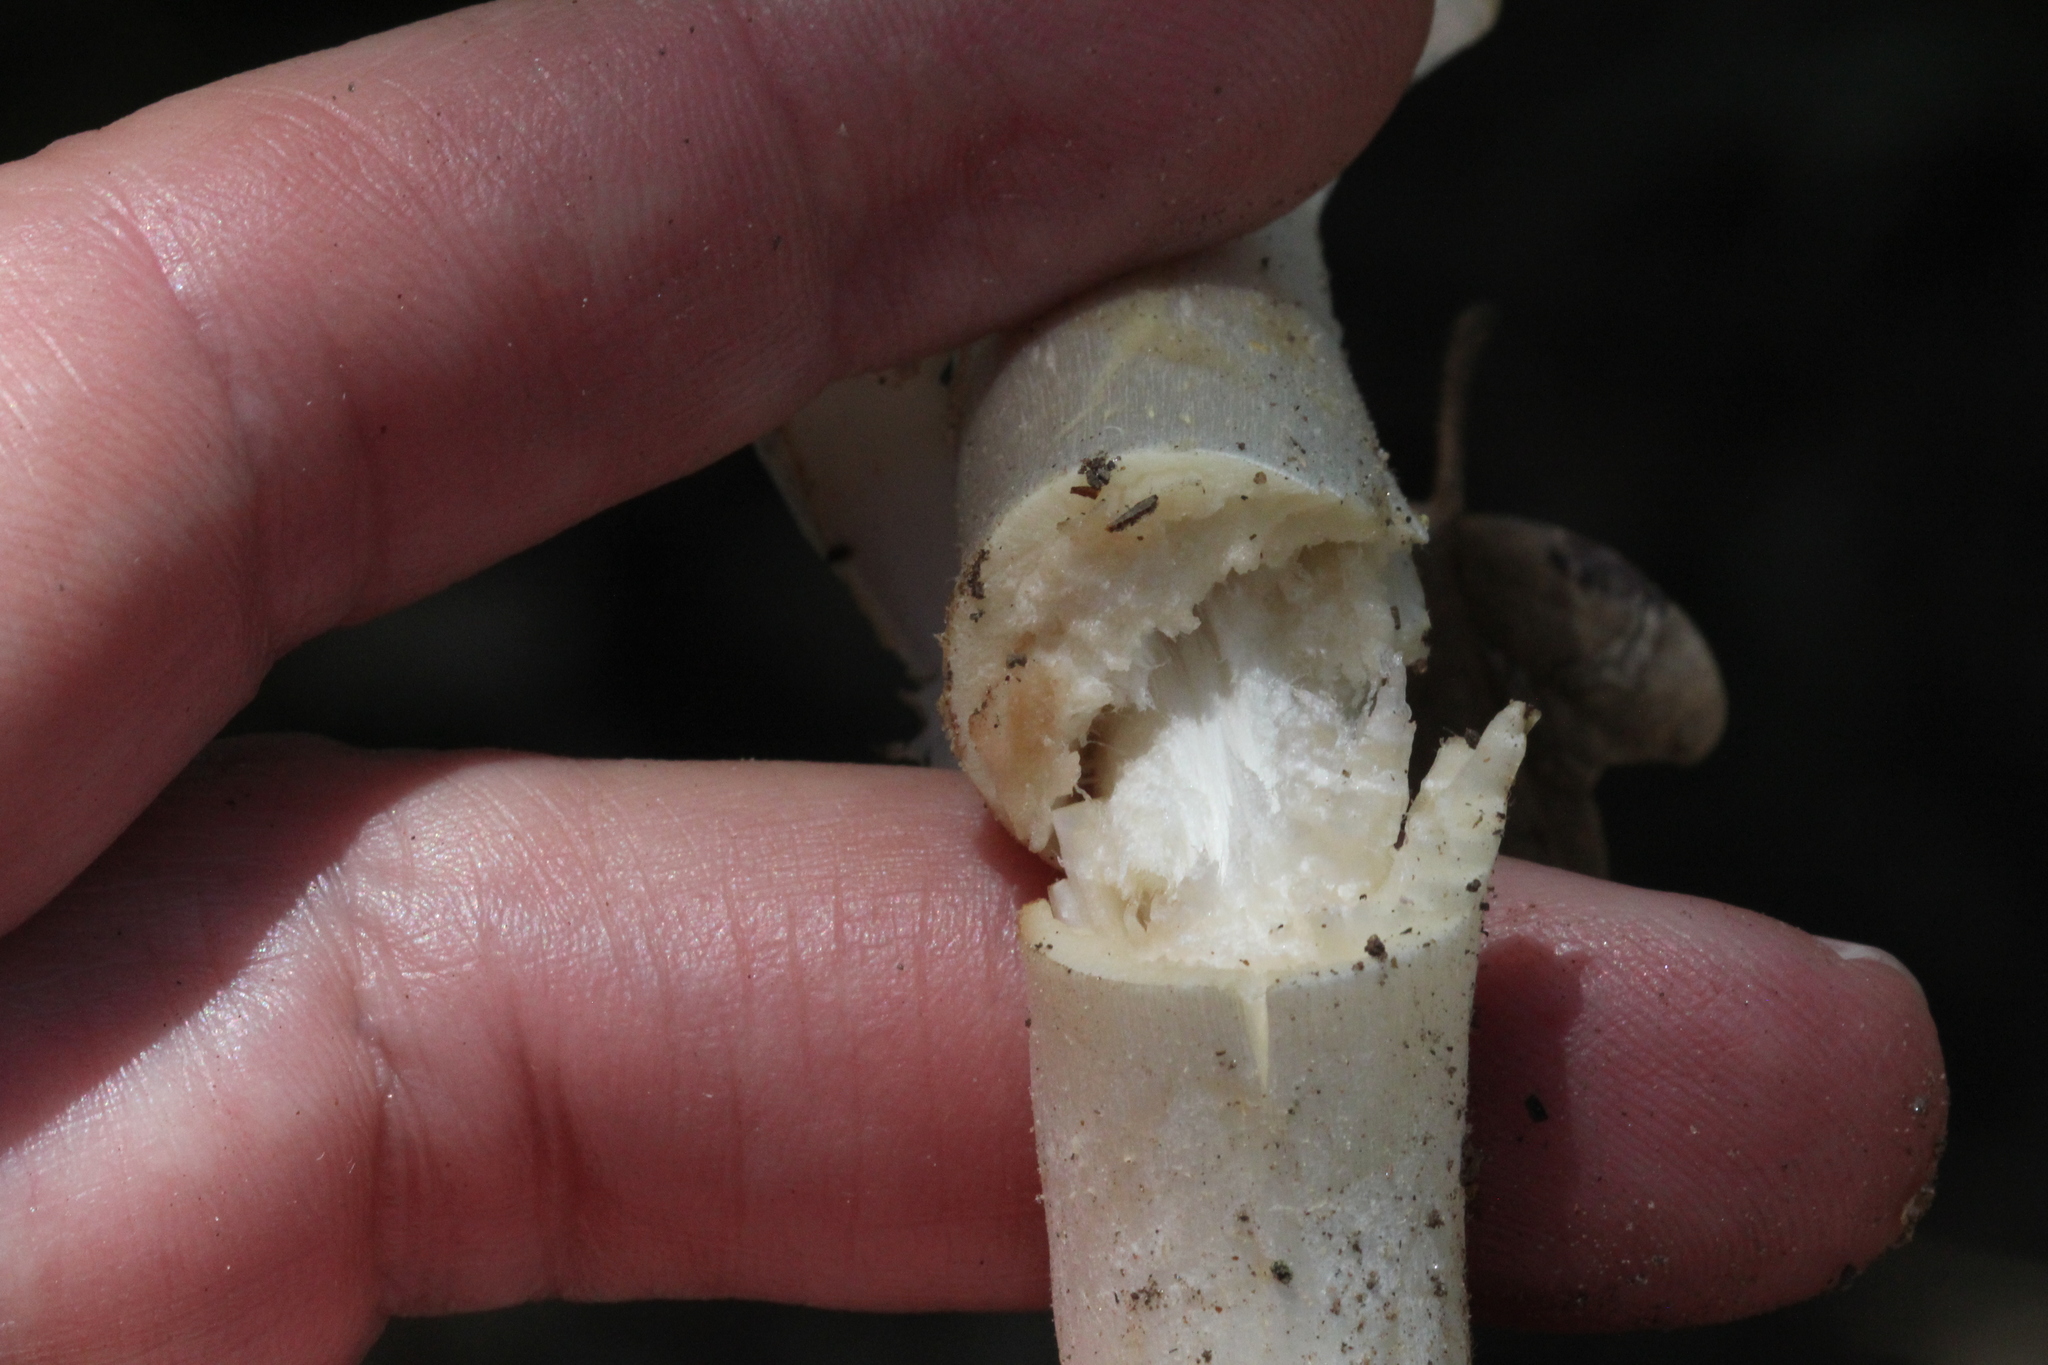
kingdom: Fungi
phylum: Basidiomycota
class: Agaricomycetes
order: Agaricales
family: Agaricaceae
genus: Agaricus
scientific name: Agaricus xanthodermus
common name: Yellow stainer
